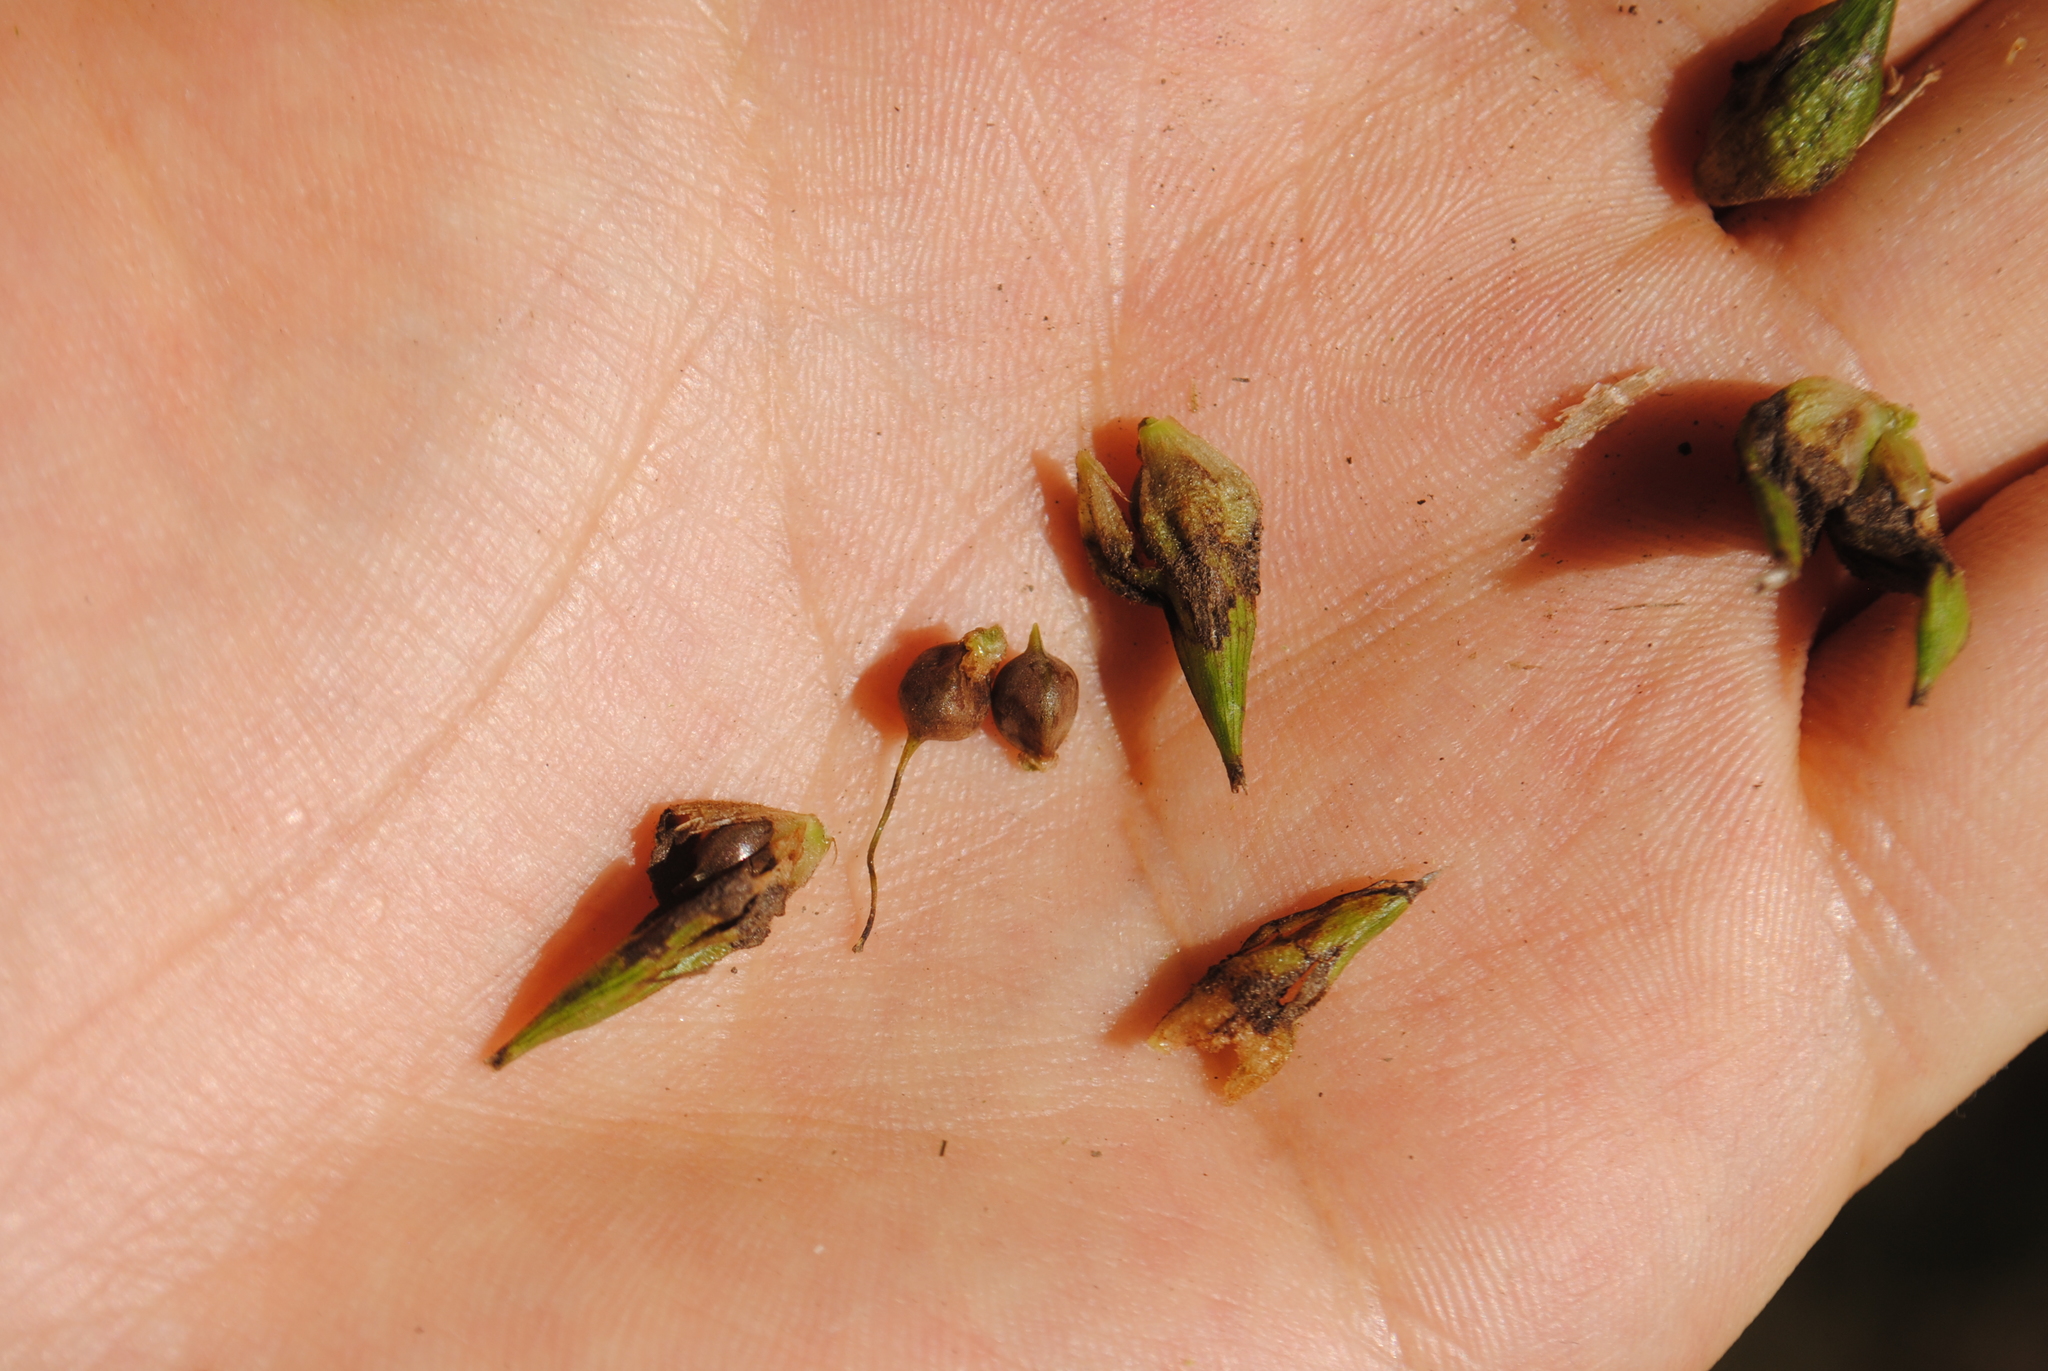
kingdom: Plantae
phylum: Tracheophyta
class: Liliopsida
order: Poales
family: Cyperaceae
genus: Carex
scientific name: Carex grayi
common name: Asa gray's sedge
